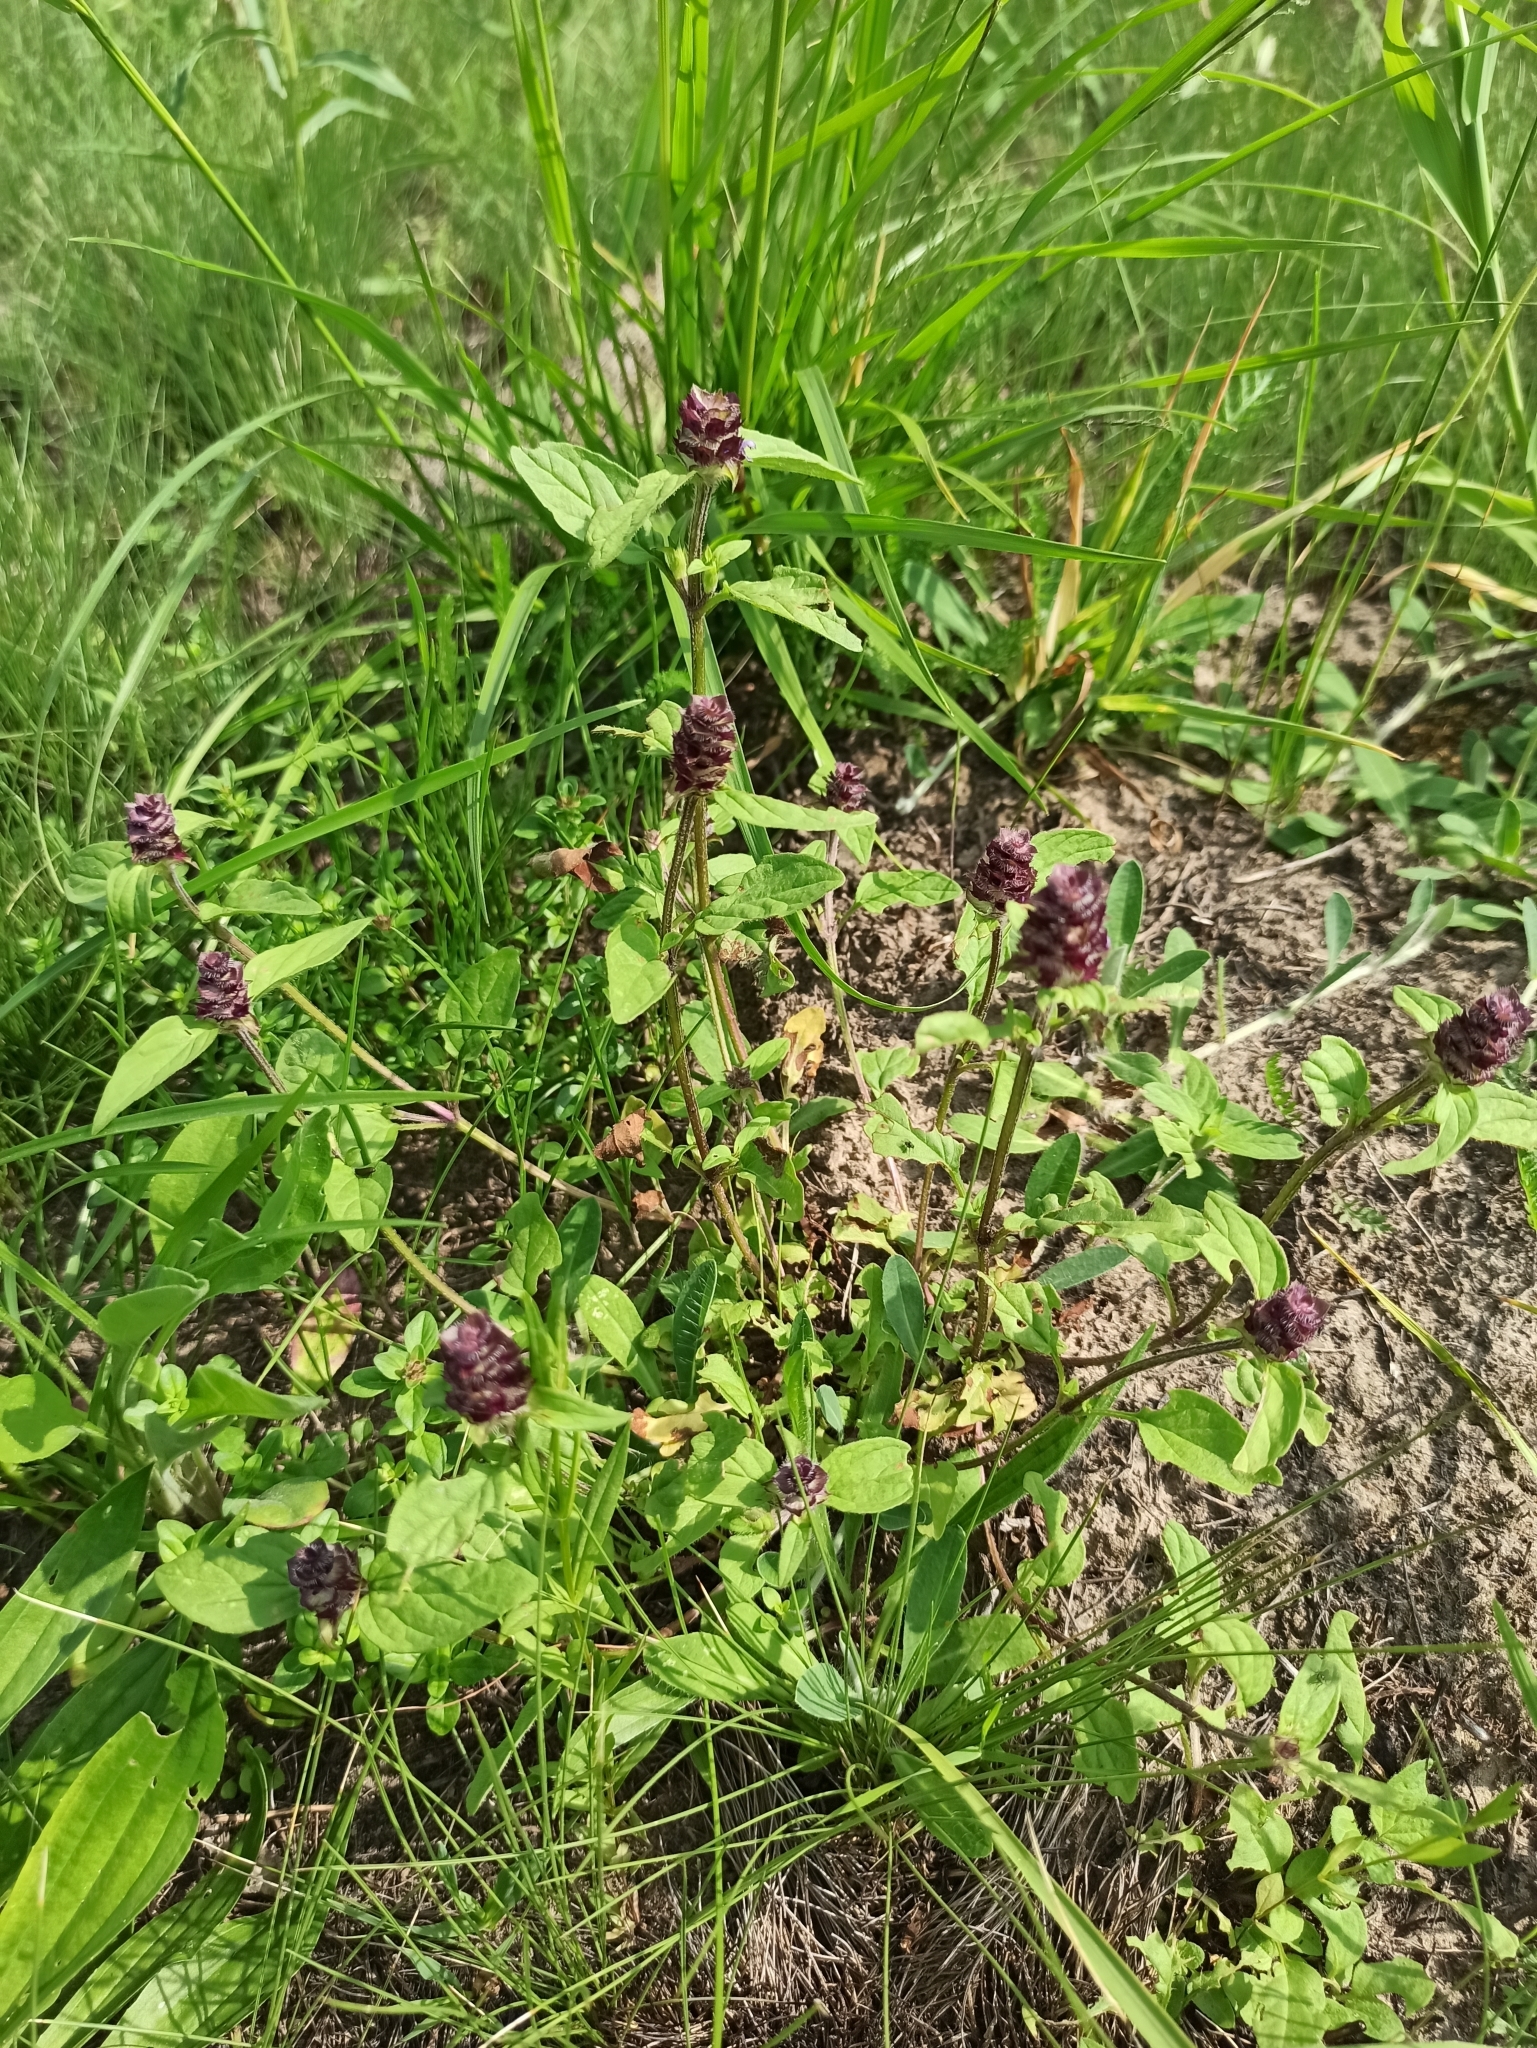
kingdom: Plantae
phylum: Tracheophyta
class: Magnoliopsida
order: Lamiales
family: Lamiaceae
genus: Prunella
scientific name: Prunella vulgaris
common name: Heal-all
